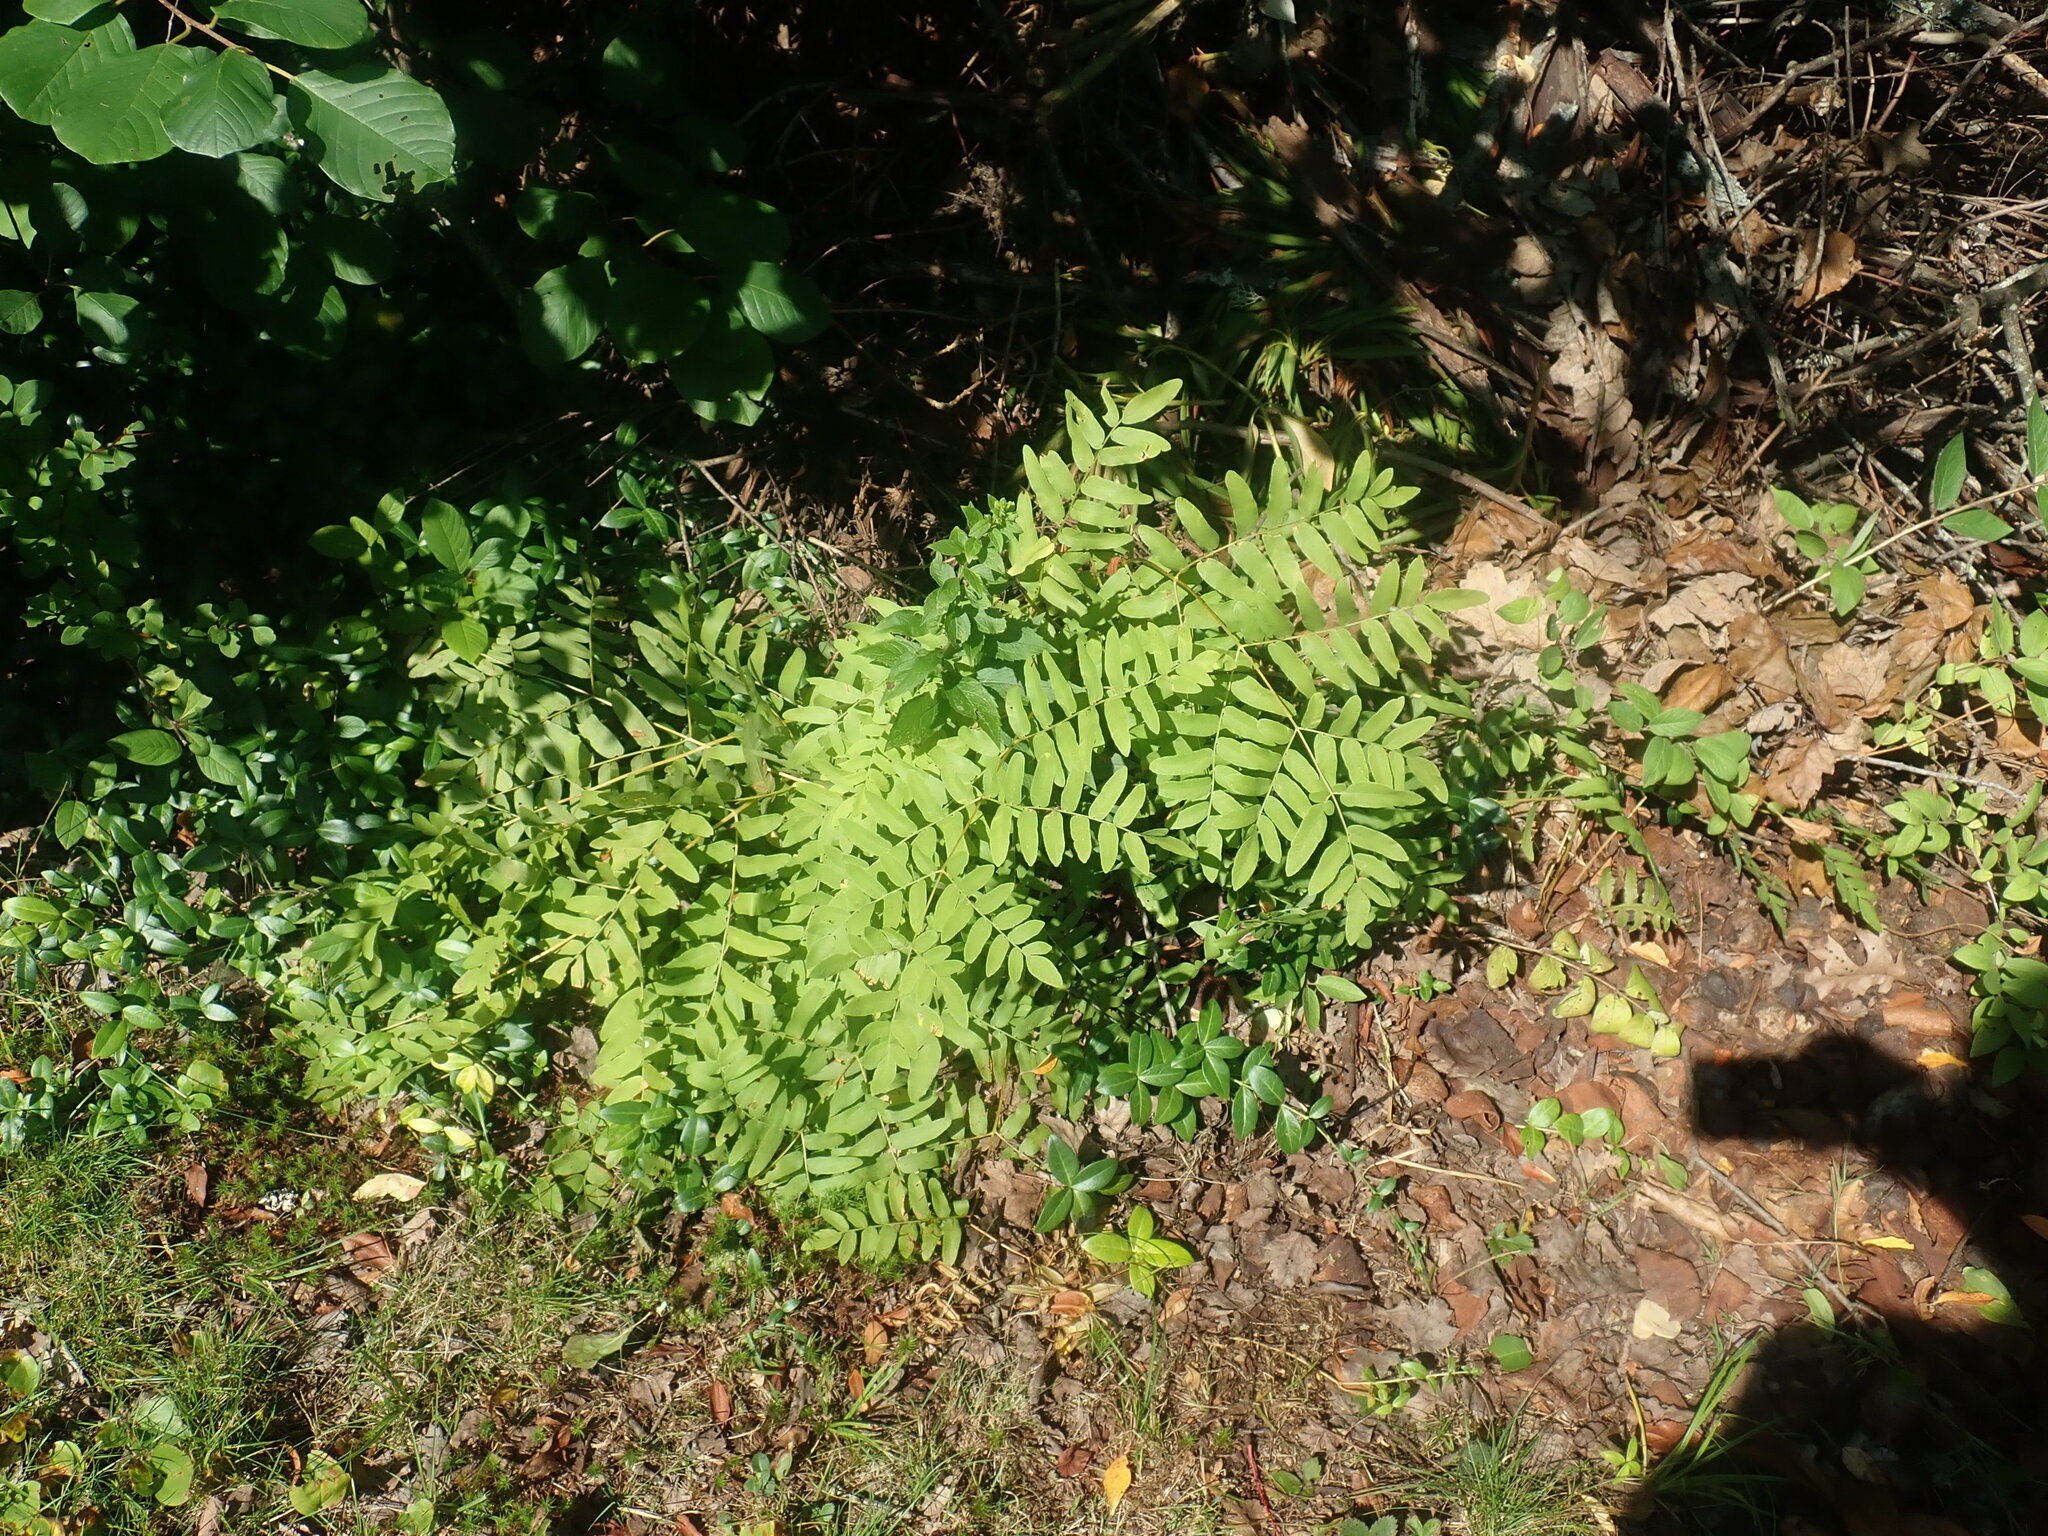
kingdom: Plantae
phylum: Tracheophyta
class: Polypodiopsida
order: Osmundales
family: Osmundaceae
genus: Osmunda
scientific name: Osmunda spectabilis
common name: American royal fern
